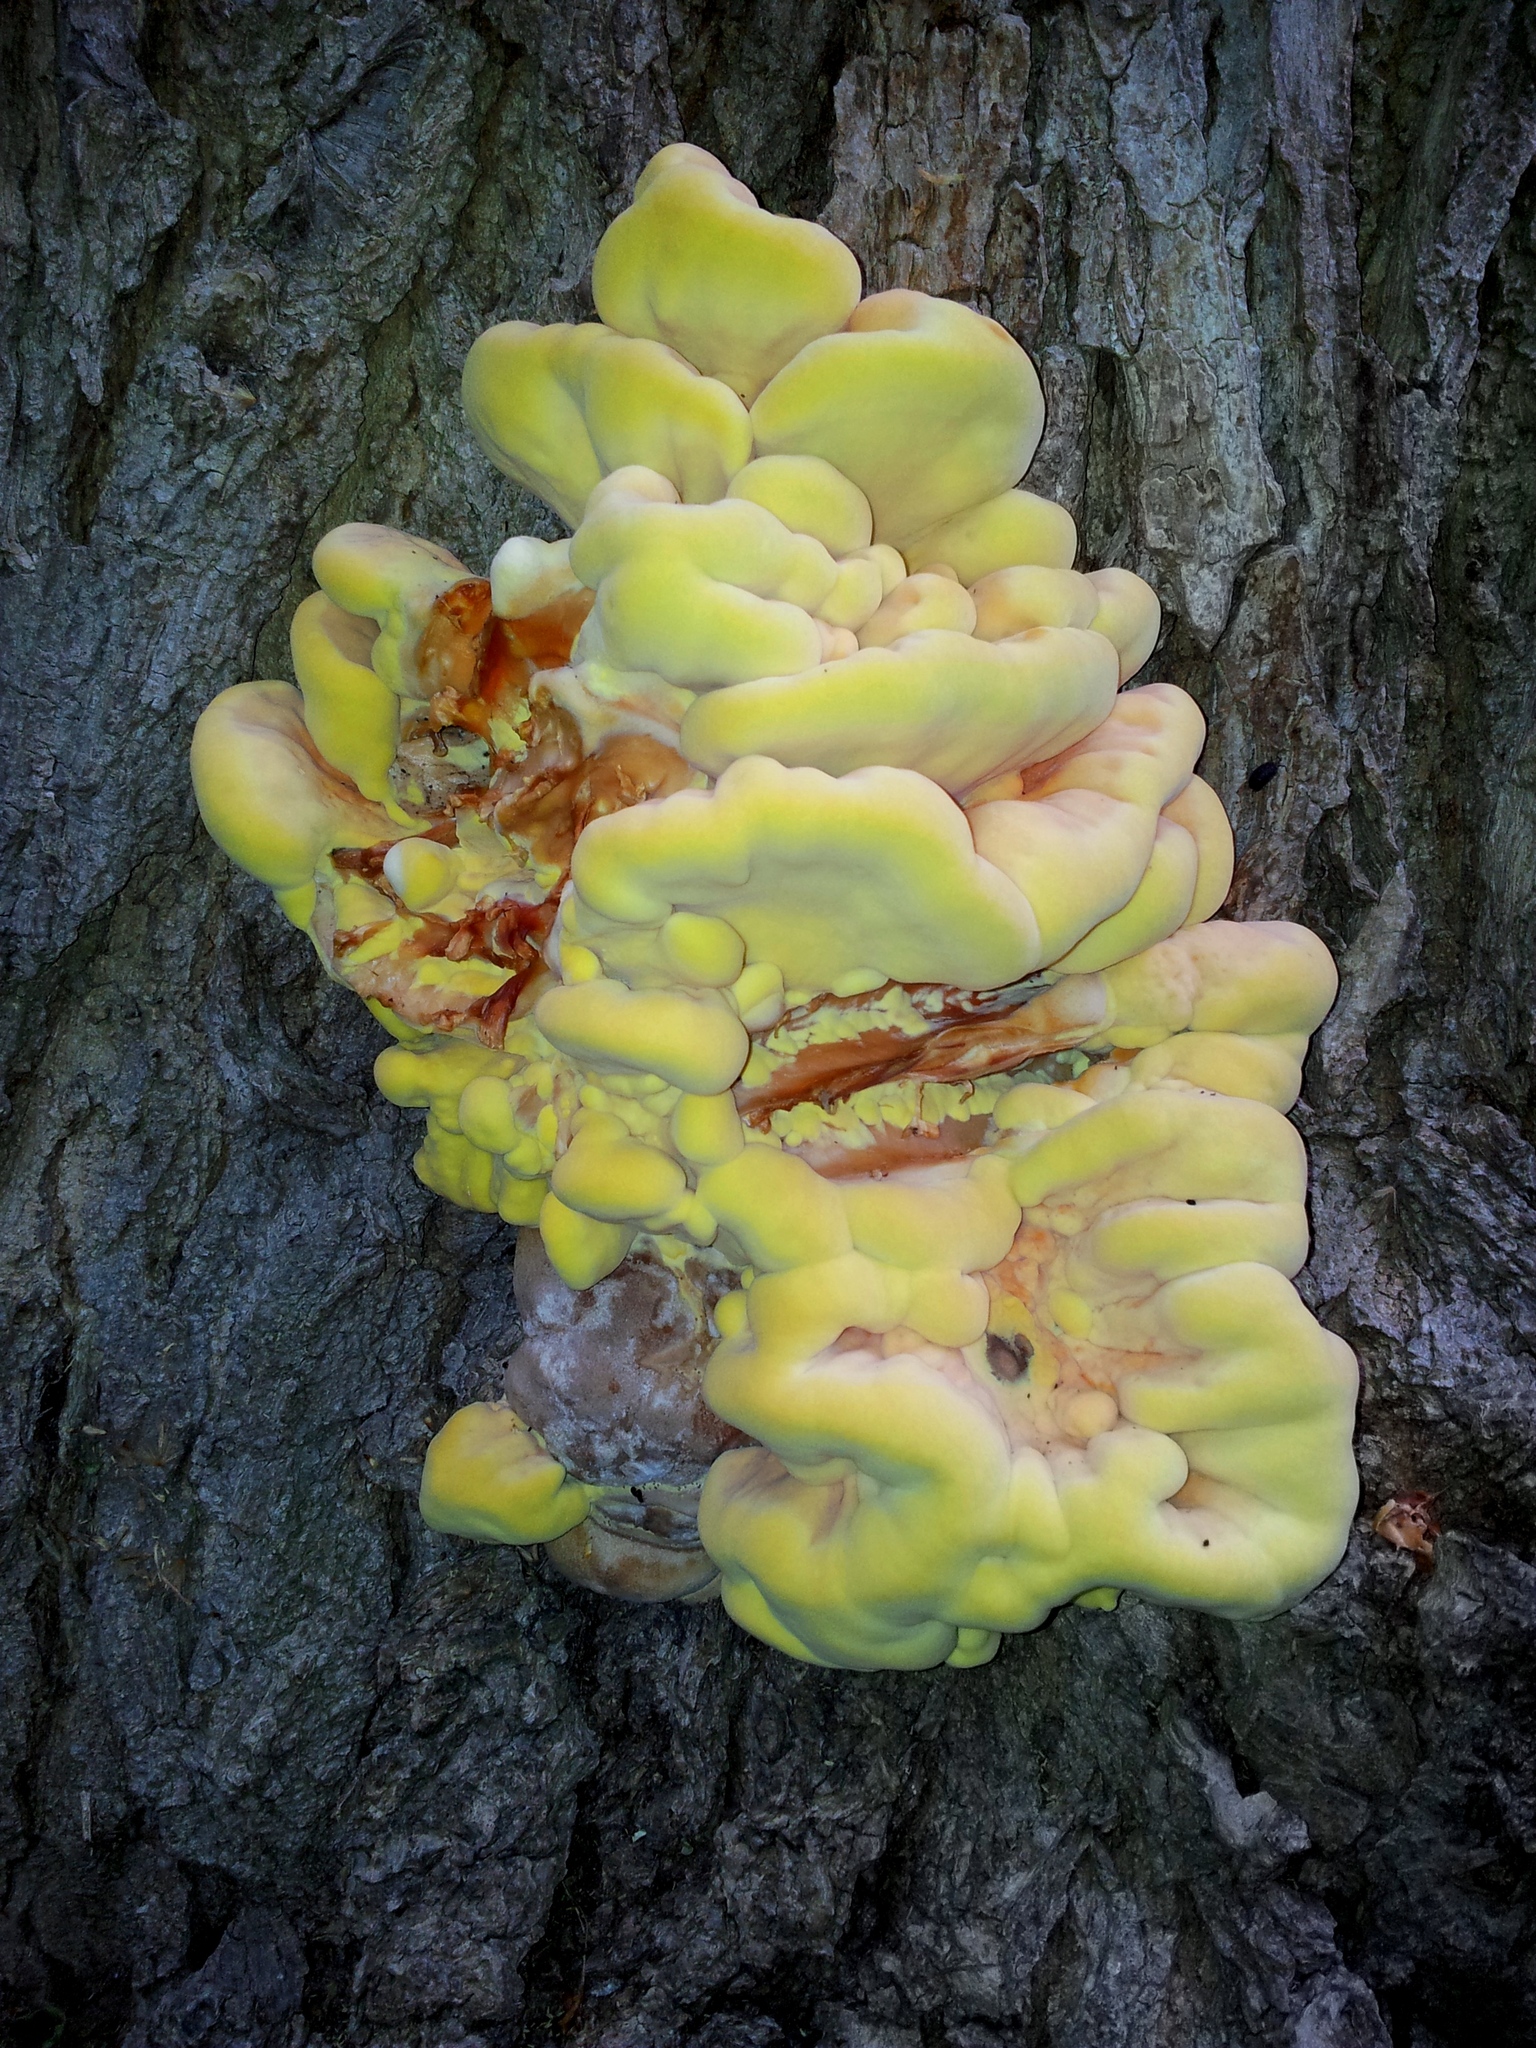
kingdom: Fungi
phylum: Basidiomycota
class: Agaricomycetes
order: Polyporales
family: Laetiporaceae
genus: Laetiporus
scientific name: Laetiporus sulphureus
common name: Chicken of the woods
